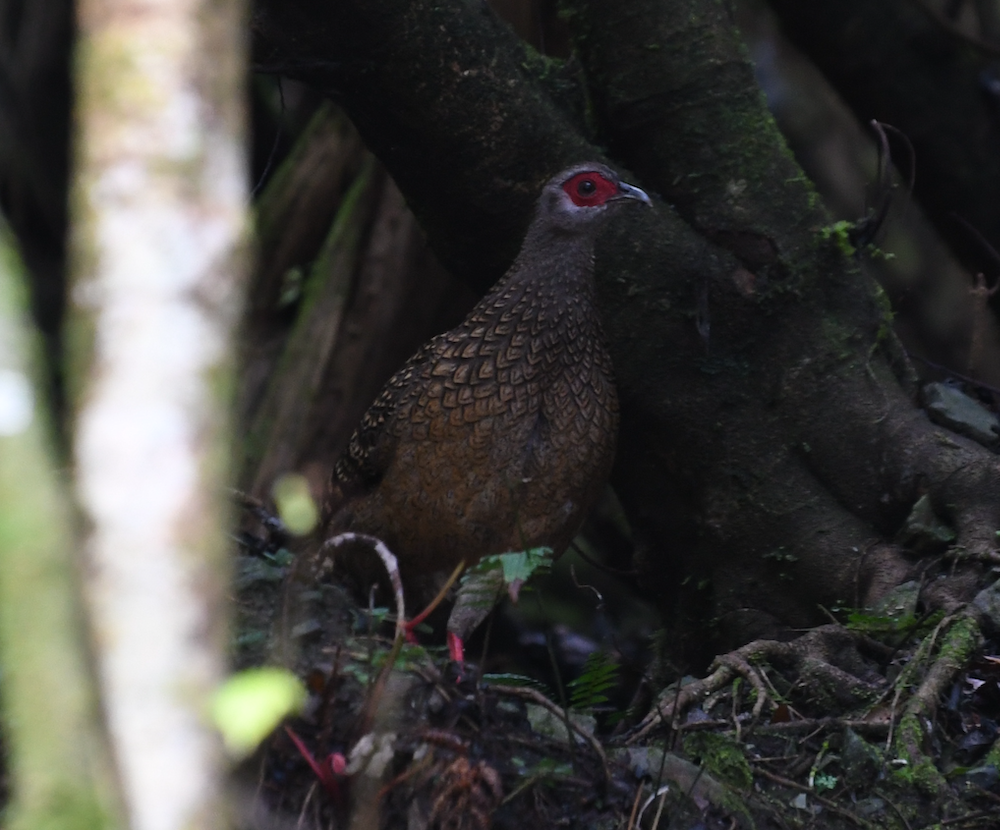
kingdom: Animalia
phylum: Chordata
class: Aves
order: Galliformes
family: Phasianidae
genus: Lophura
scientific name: Lophura swinhoii
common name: Swinhoe's pheasant
